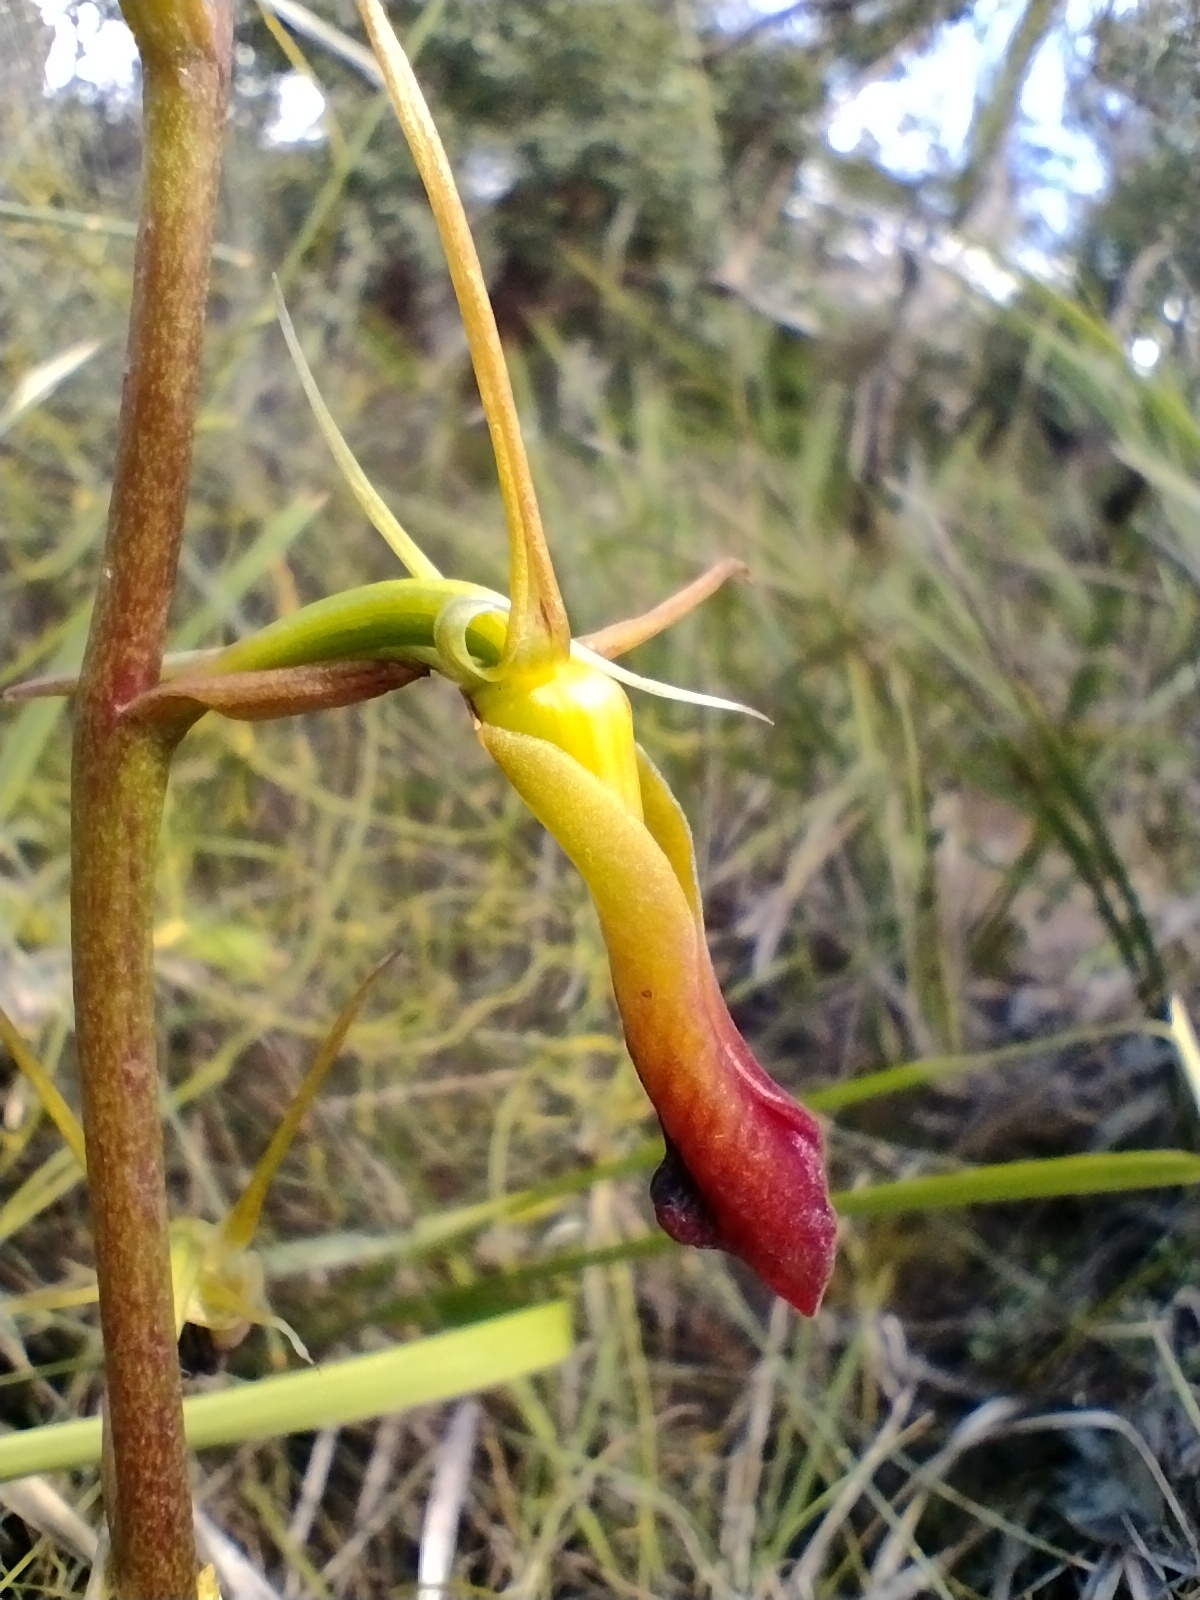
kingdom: Plantae
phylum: Tracheophyta
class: Liliopsida
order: Asparagales
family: Orchidaceae
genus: Cryptostylis
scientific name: Cryptostylis subulata
